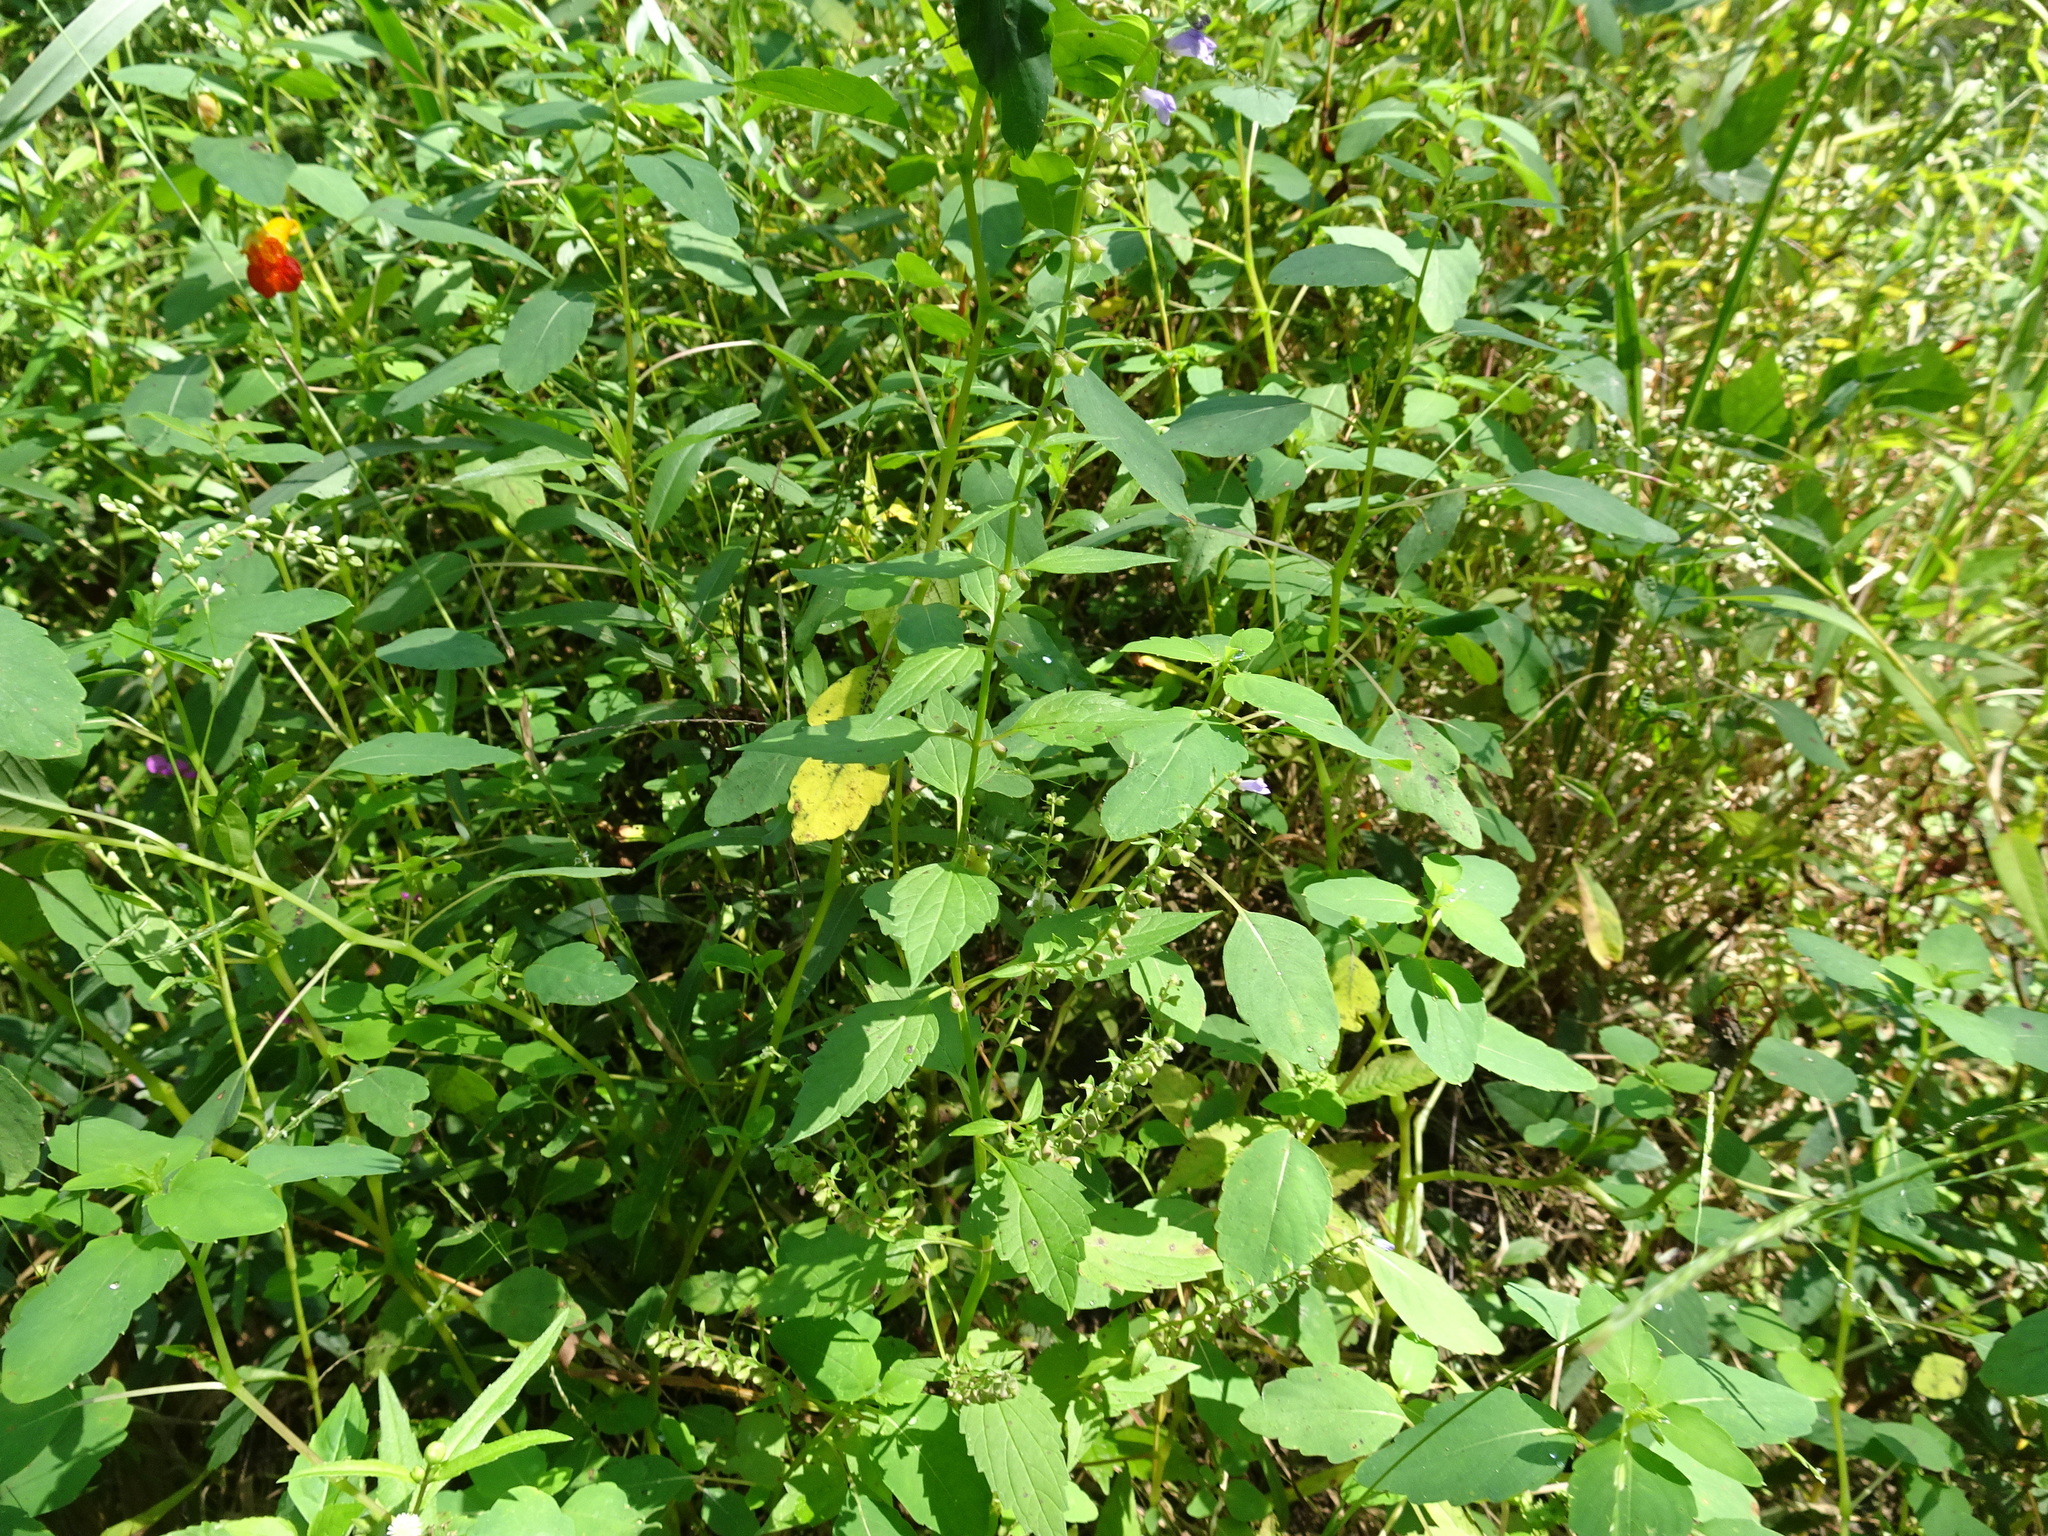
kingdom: Plantae
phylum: Tracheophyta
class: Magnoliopsida
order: Lamiales
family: Lamiaceae
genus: Scutellaria
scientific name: Scutellaria lateriflora
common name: Blue skullcap
